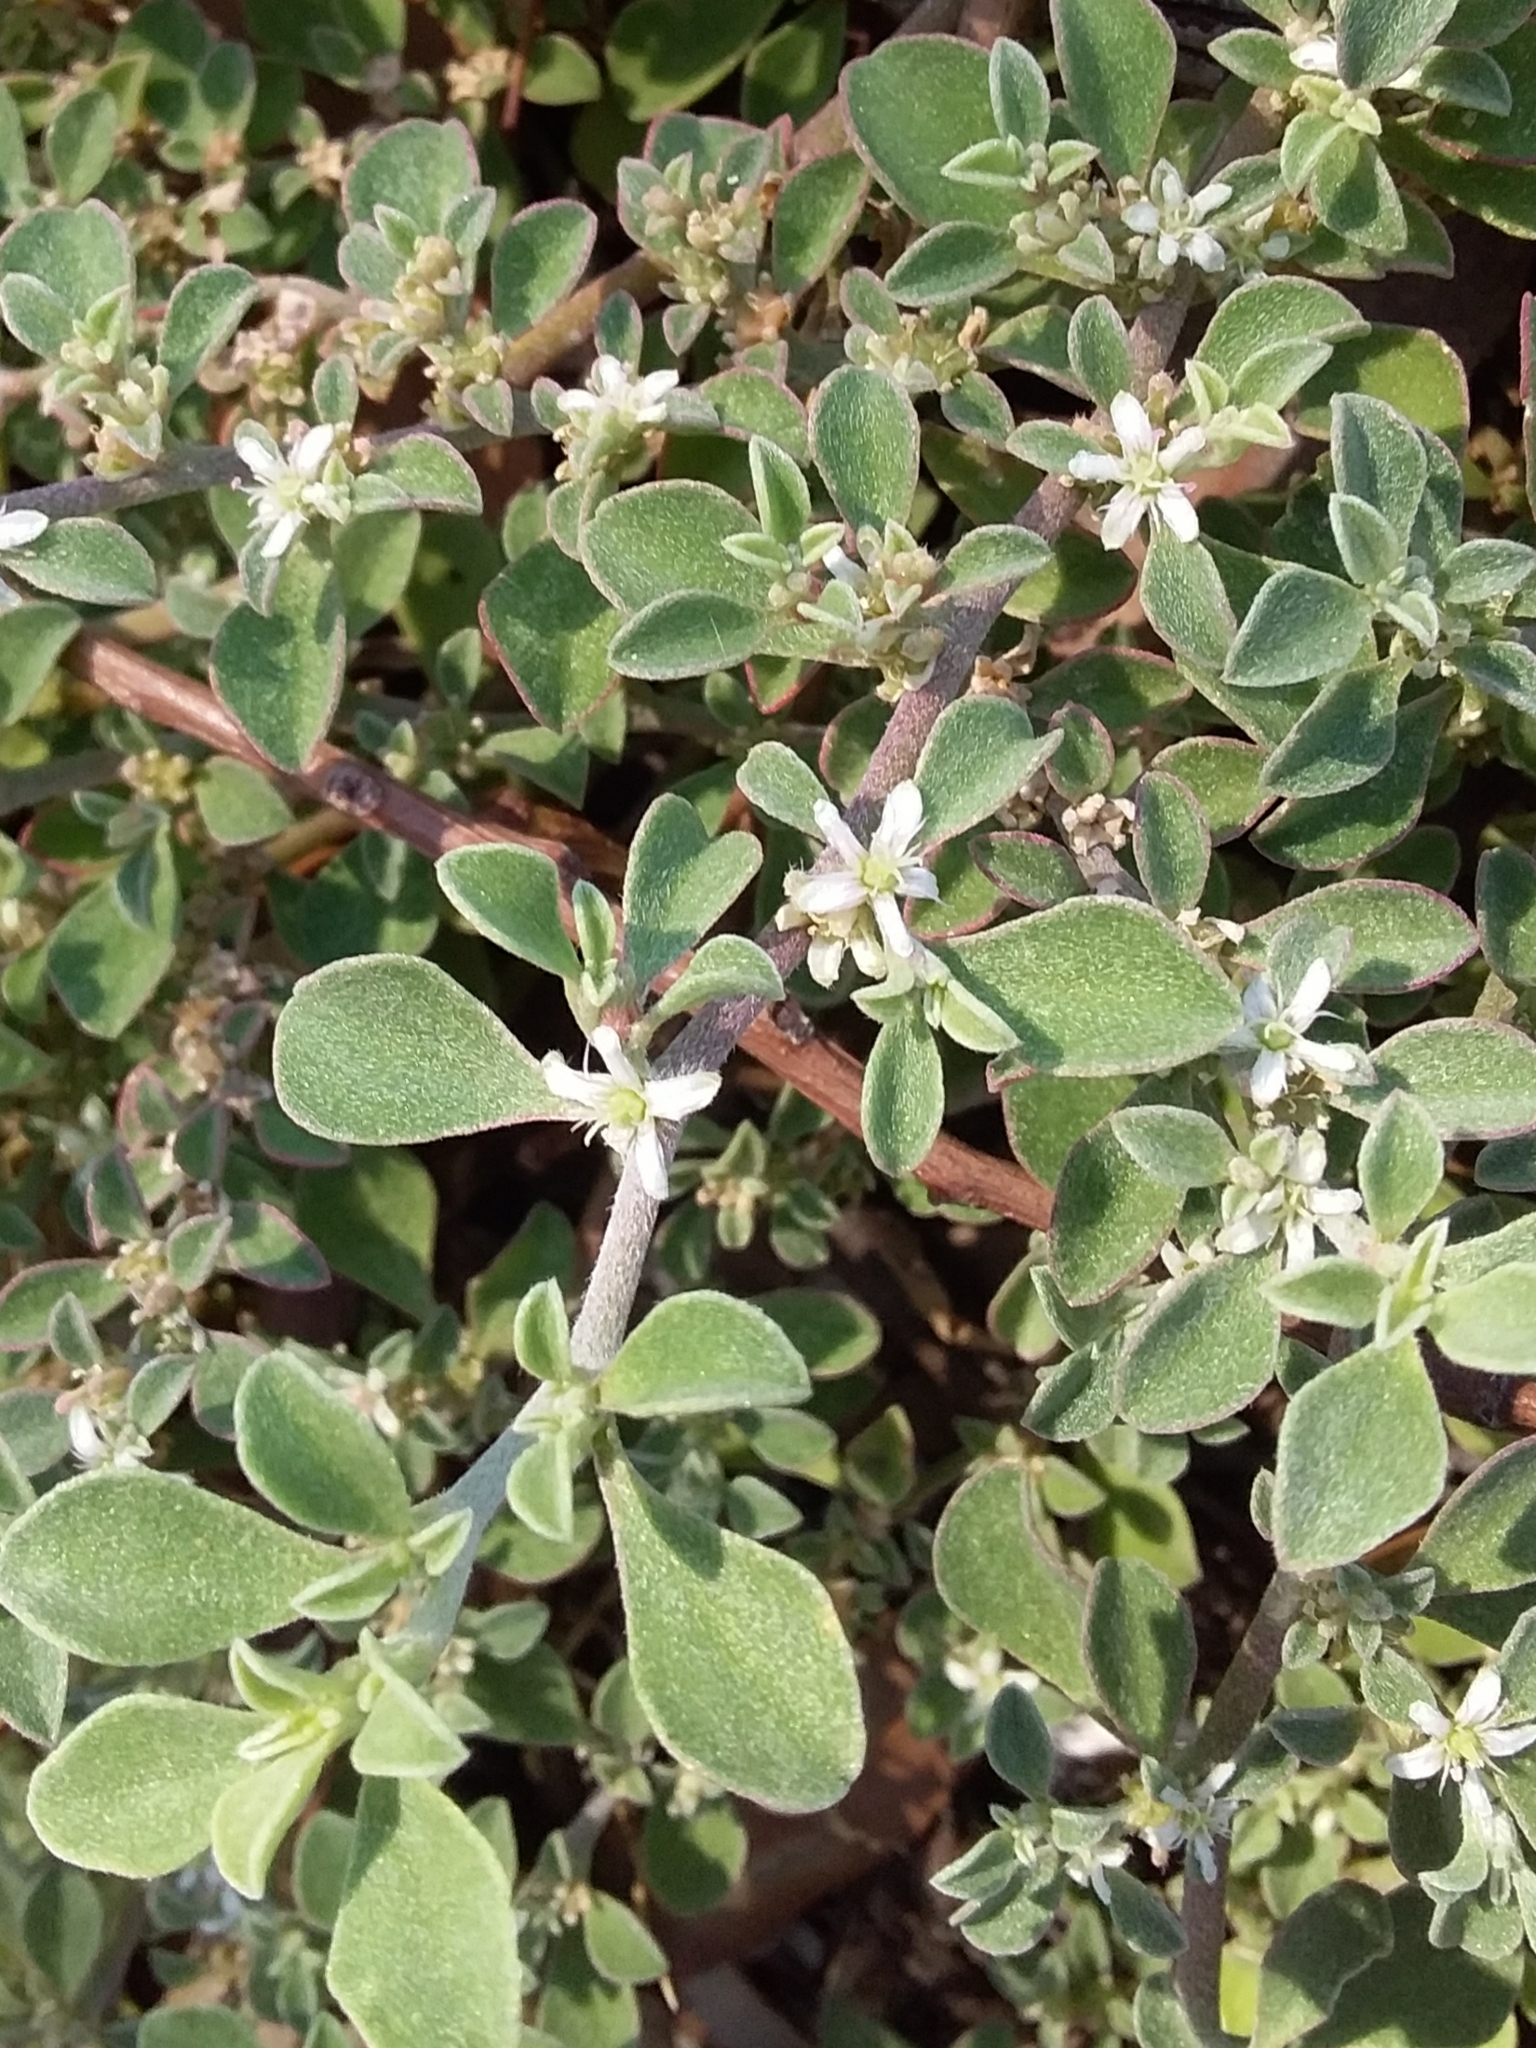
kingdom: Plantae
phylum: Tracheophyta
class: Magnoliopsida
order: Caryophyllales
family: Aizoaceae
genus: Aizoon
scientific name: Aizoon pubescens
